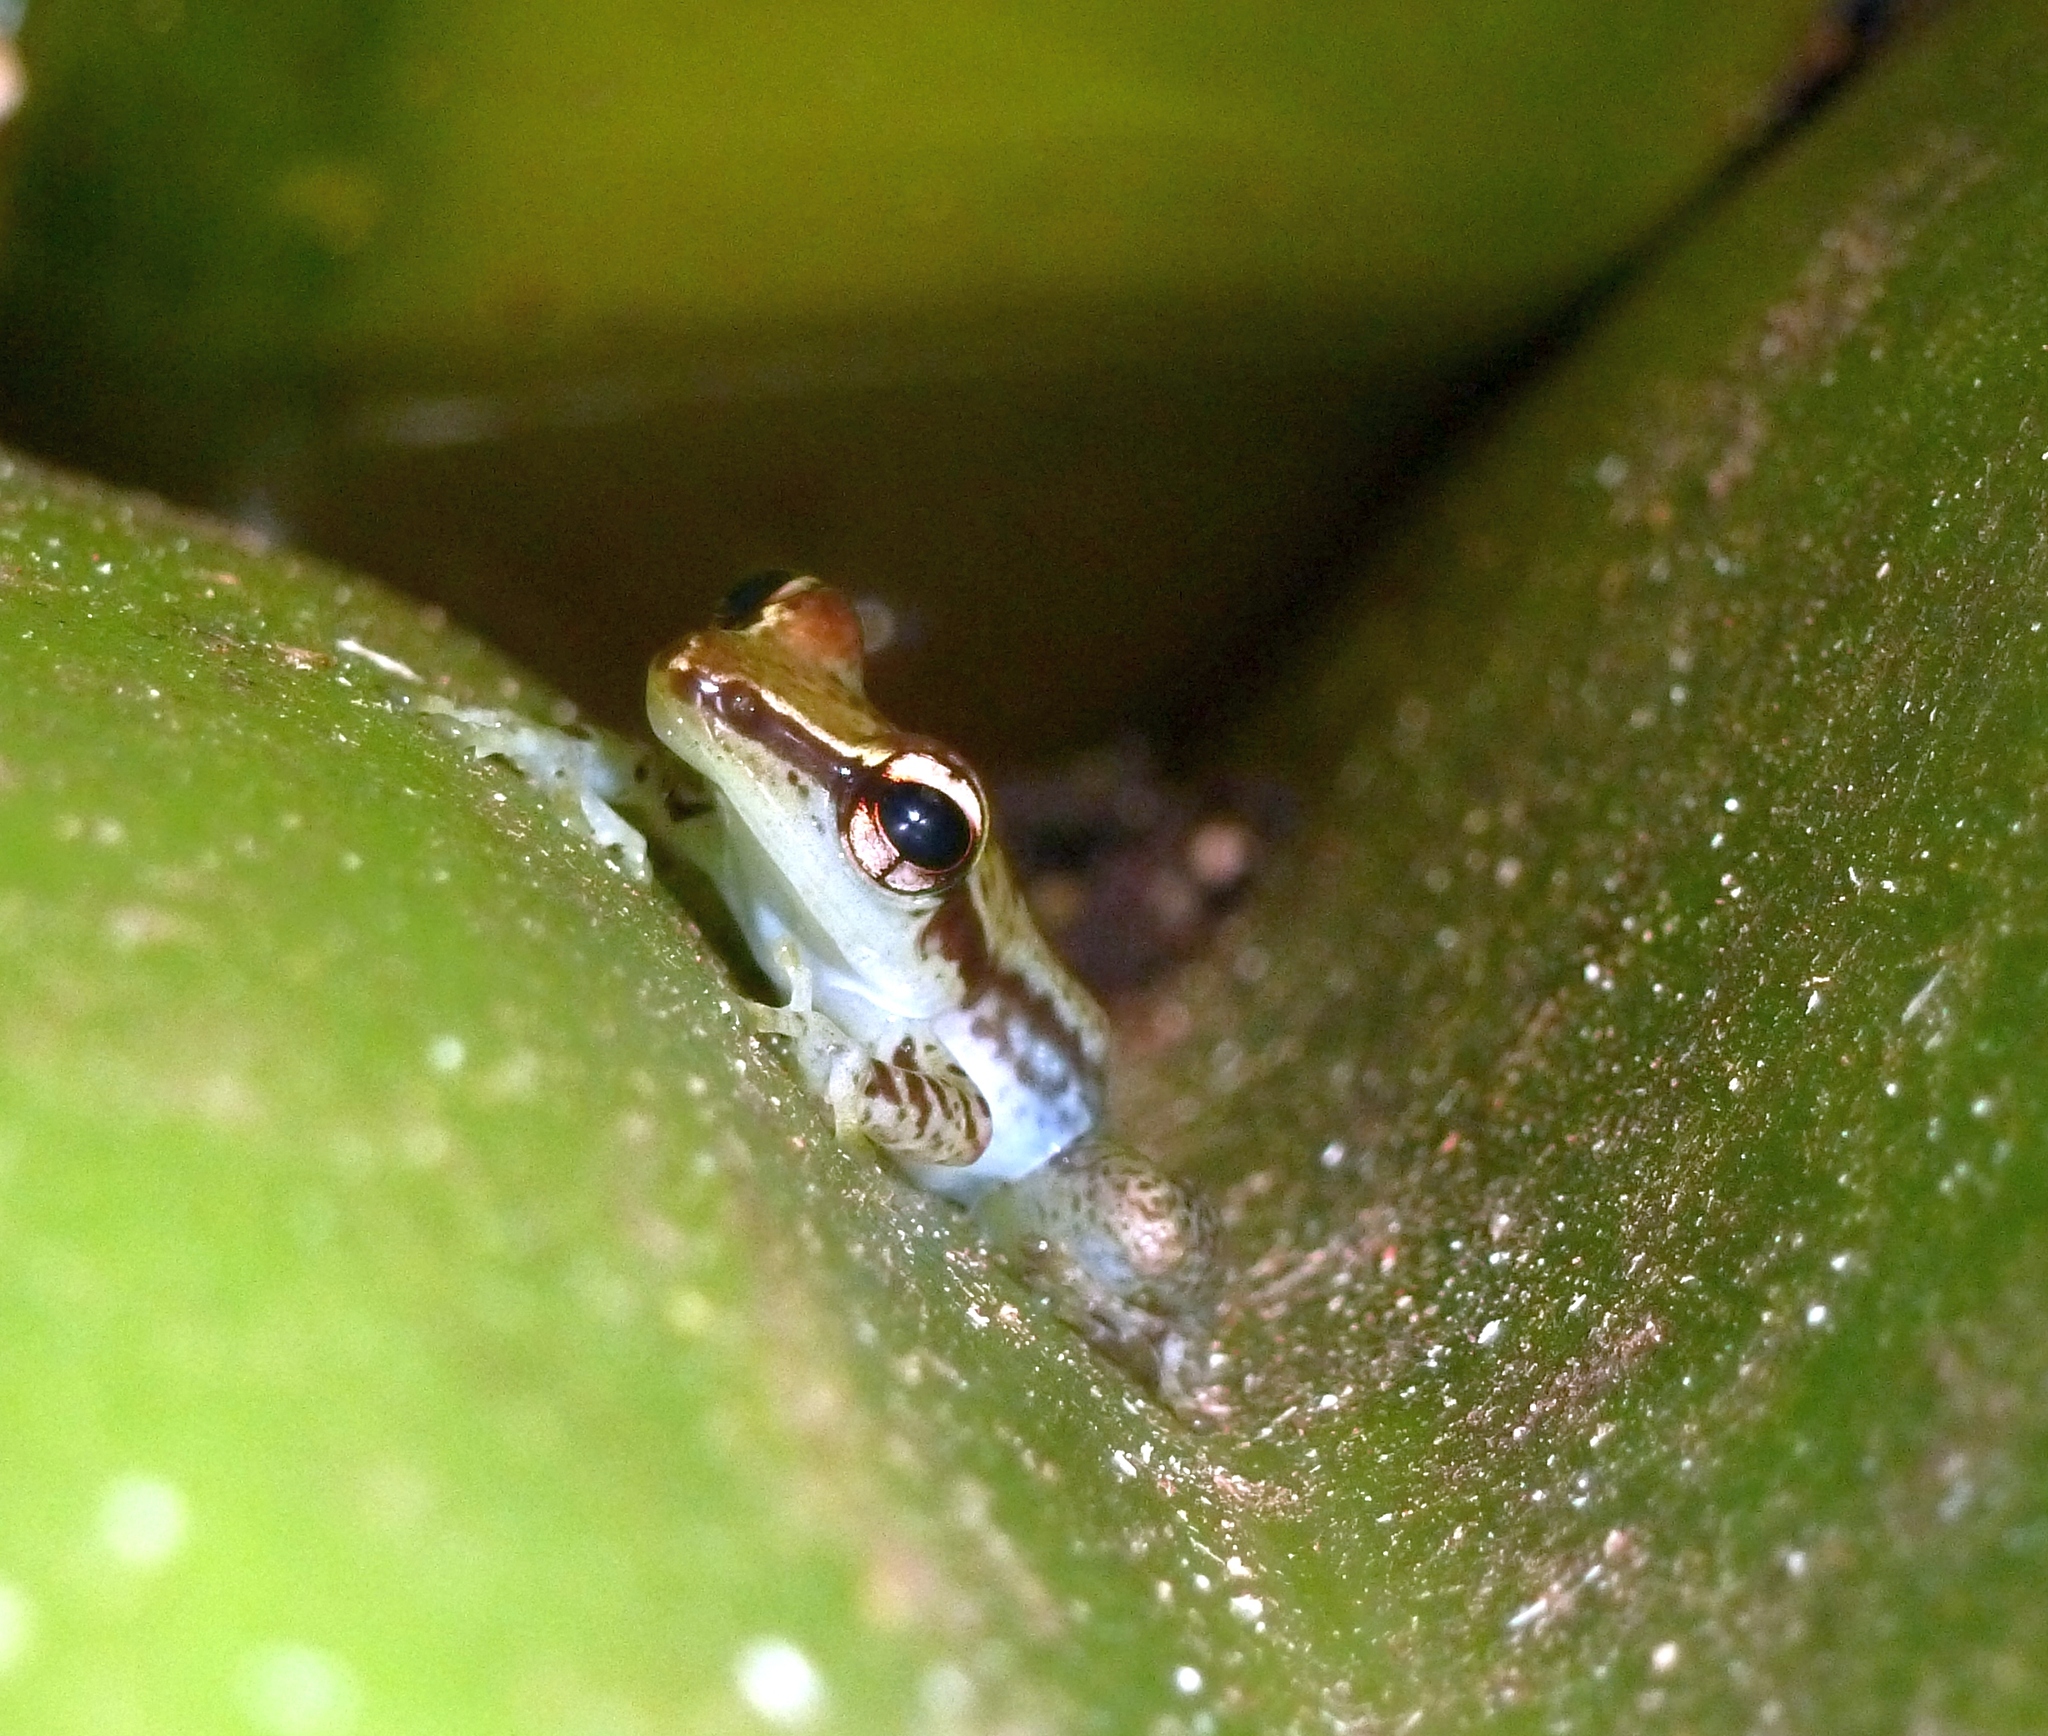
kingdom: Animalia
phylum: Chordata
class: Amphibia
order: Anura
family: Mantellidae
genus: Guibemantis
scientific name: Guibemantis woosteri
